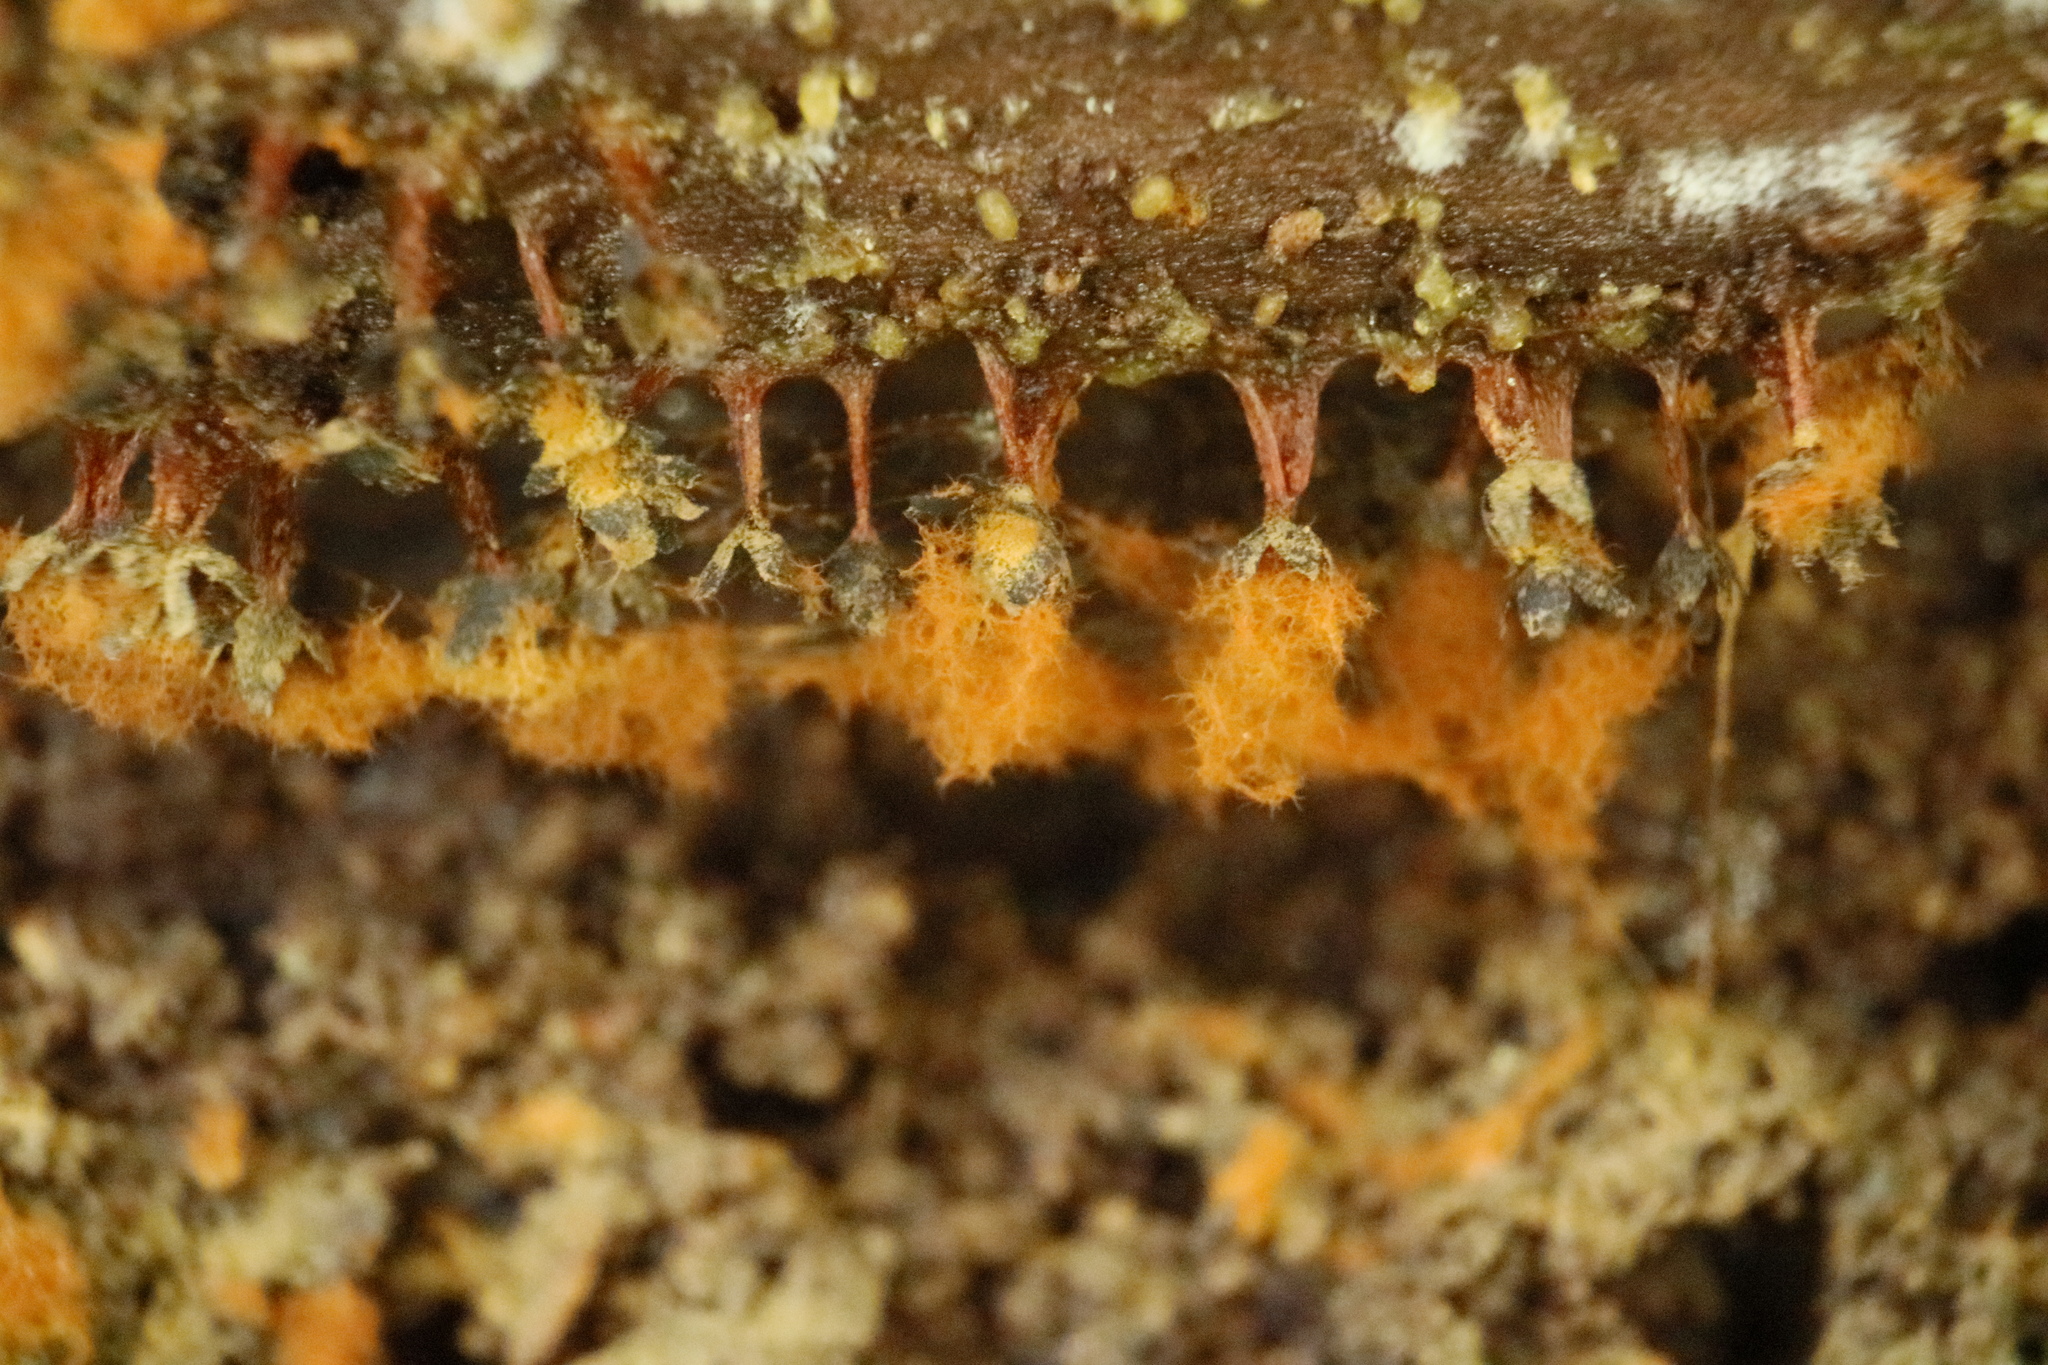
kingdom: Protozoa
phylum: Mycetozoa
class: Myxomycetes
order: Trichiales
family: Trichiaceae
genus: Metatrichia
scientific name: Metatrichia floriformis
